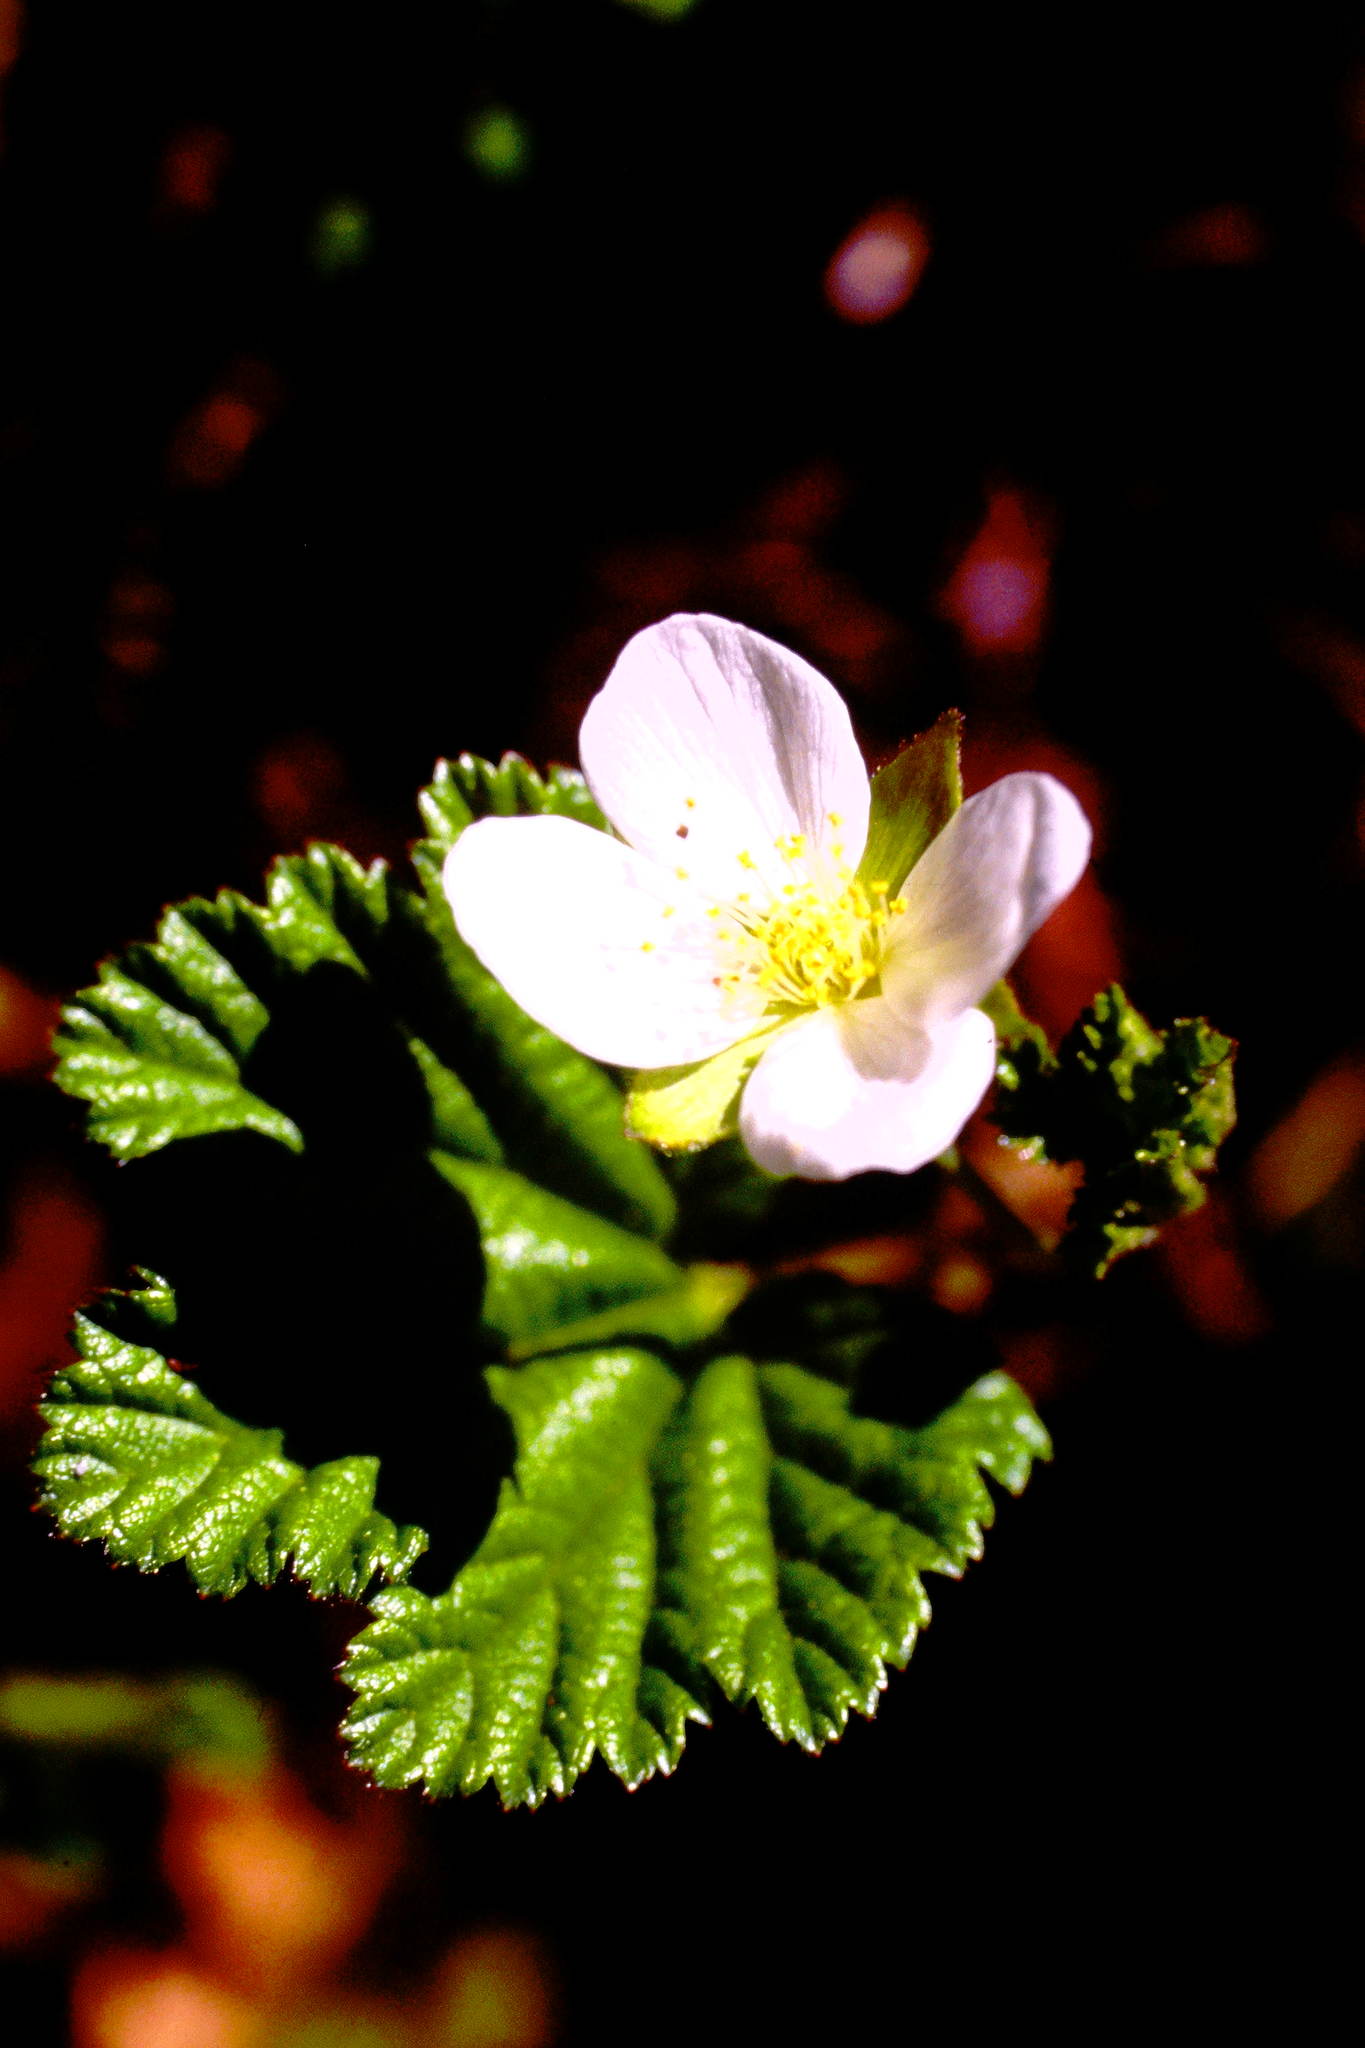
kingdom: Plantae
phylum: Tracheophyta
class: Magnoliopsida
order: Rosales
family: Rosaceae
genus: Rubus
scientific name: Rubus chamaemorus
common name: Cloudberry
